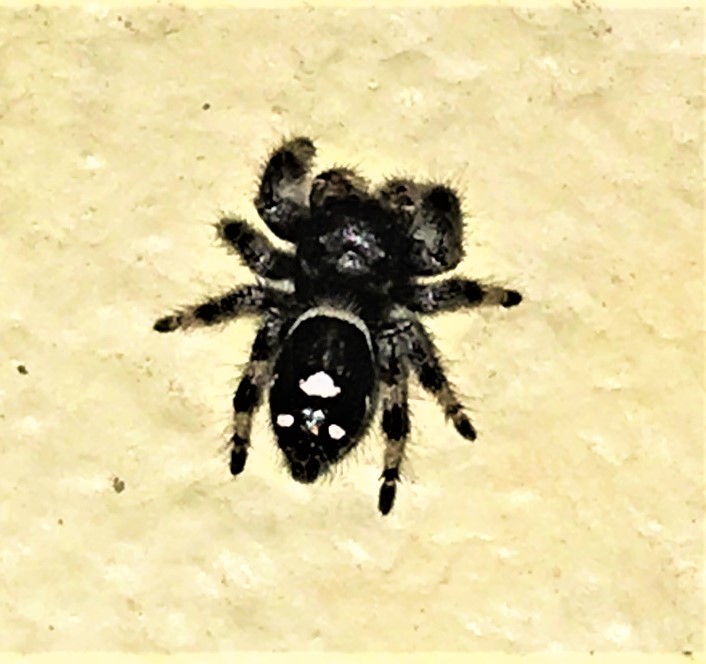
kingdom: Animalia
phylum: Arthropoda
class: Arachnida
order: Araneae
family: Salticidae
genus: Phidippus
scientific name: Phidippus audax
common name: Bold jumper
